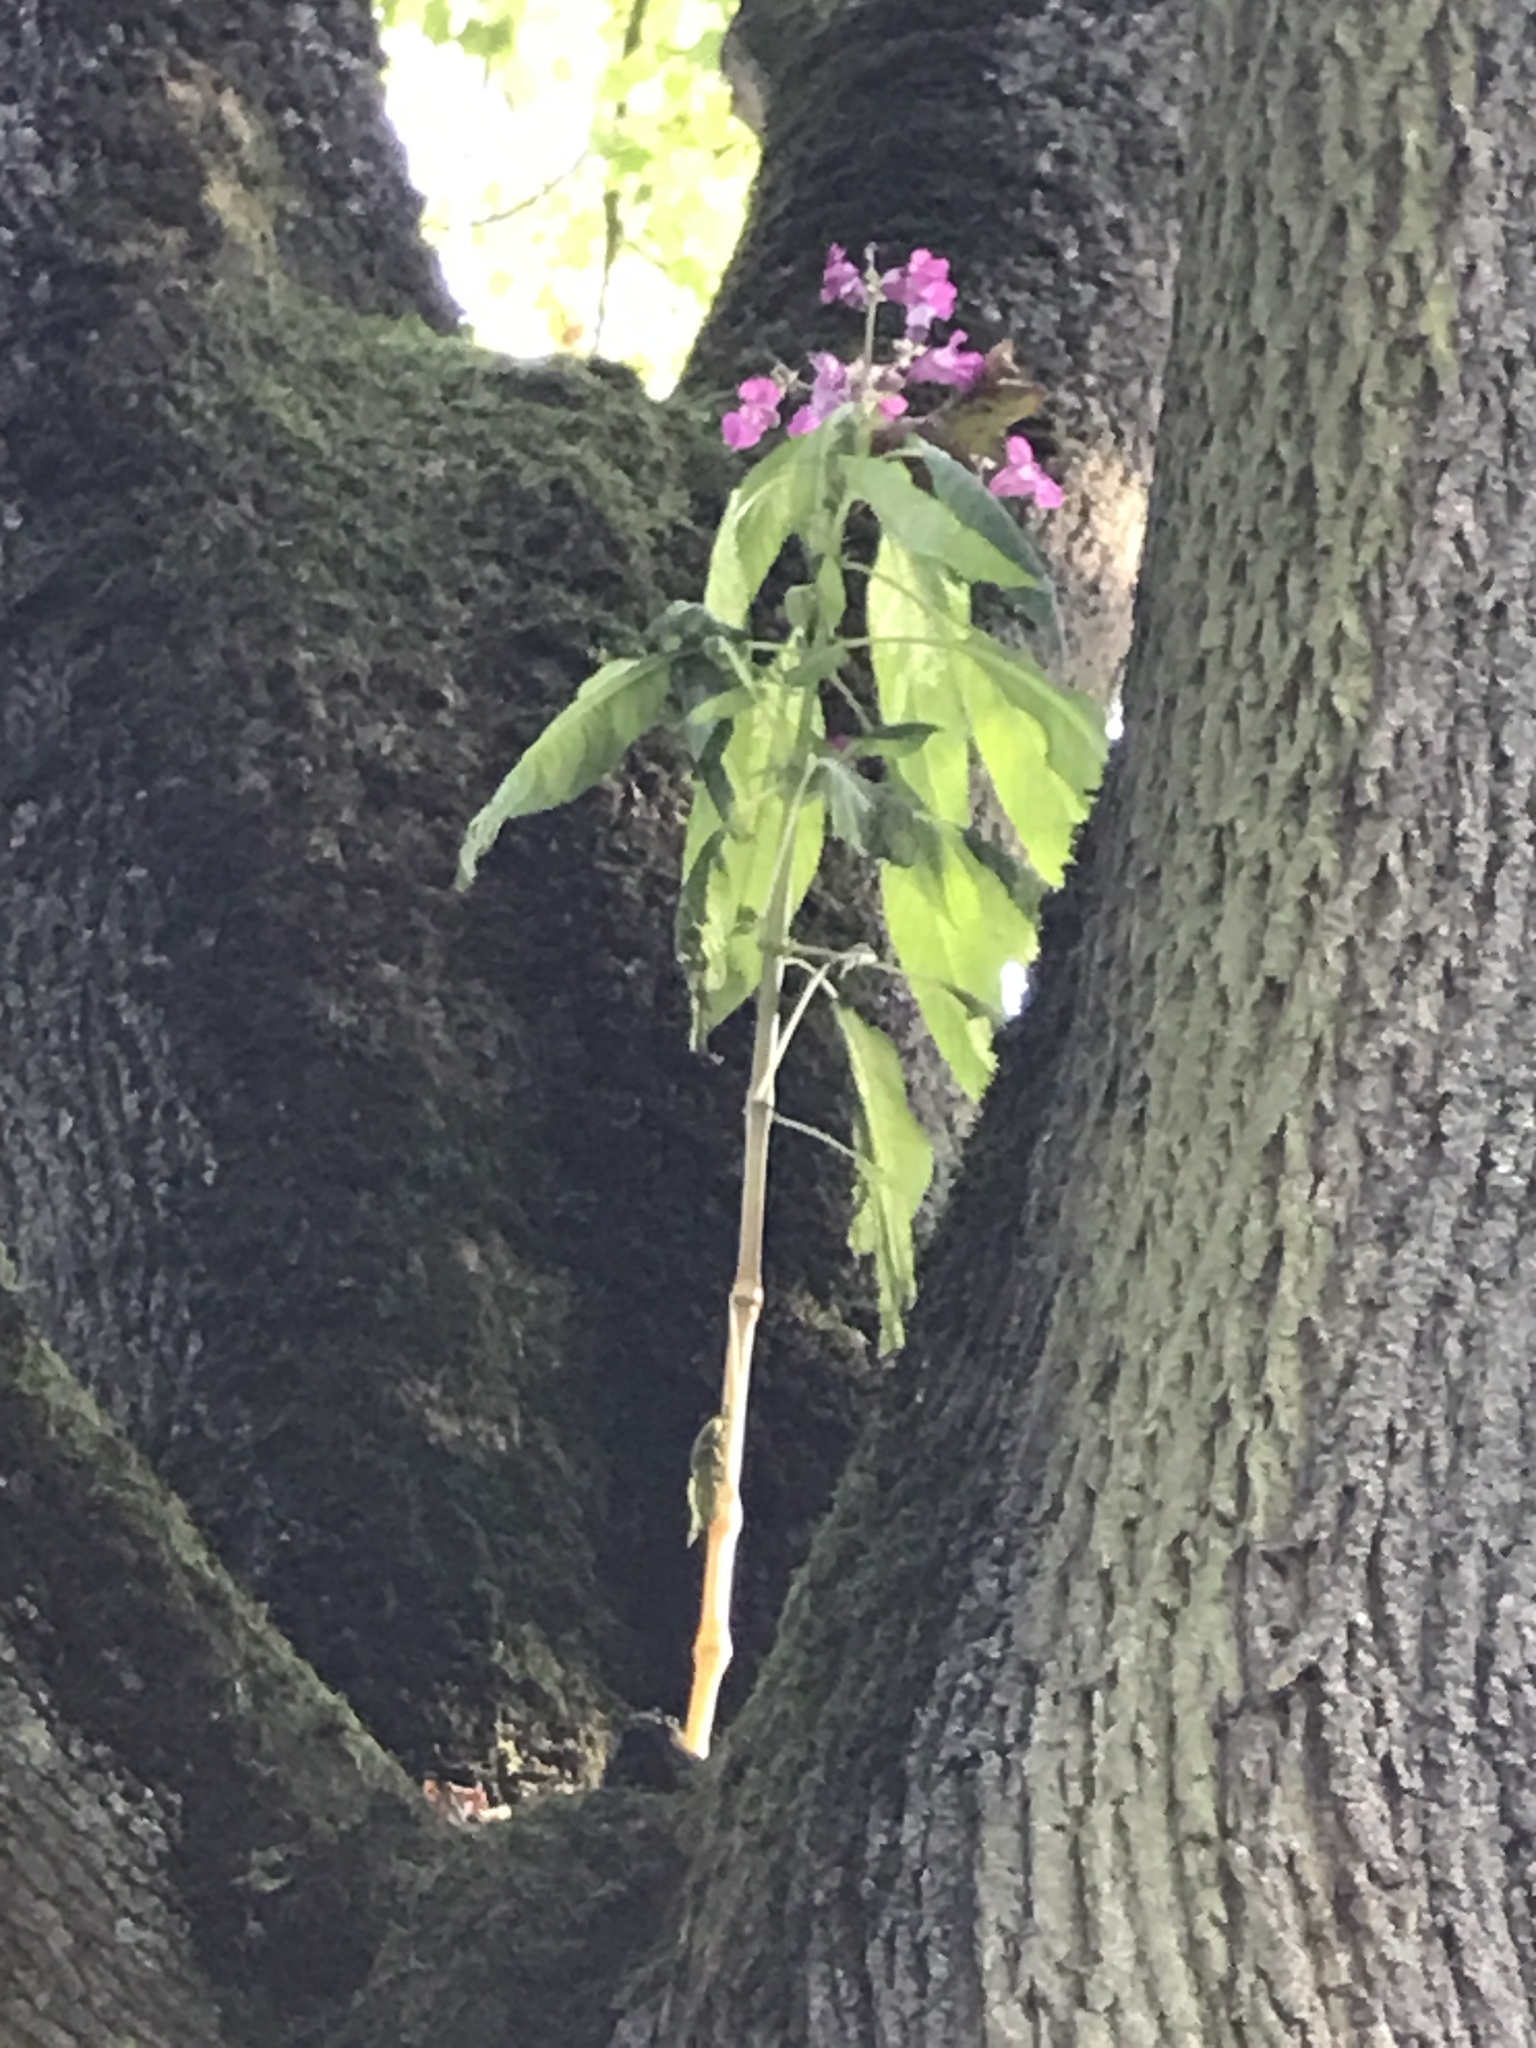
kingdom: Plantae
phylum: Tracheophyta
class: Magnoliopsida
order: Ericales
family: Balsaminaceae
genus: Impatiens
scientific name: Impatiens glandulifera
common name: Himalayan balsam
